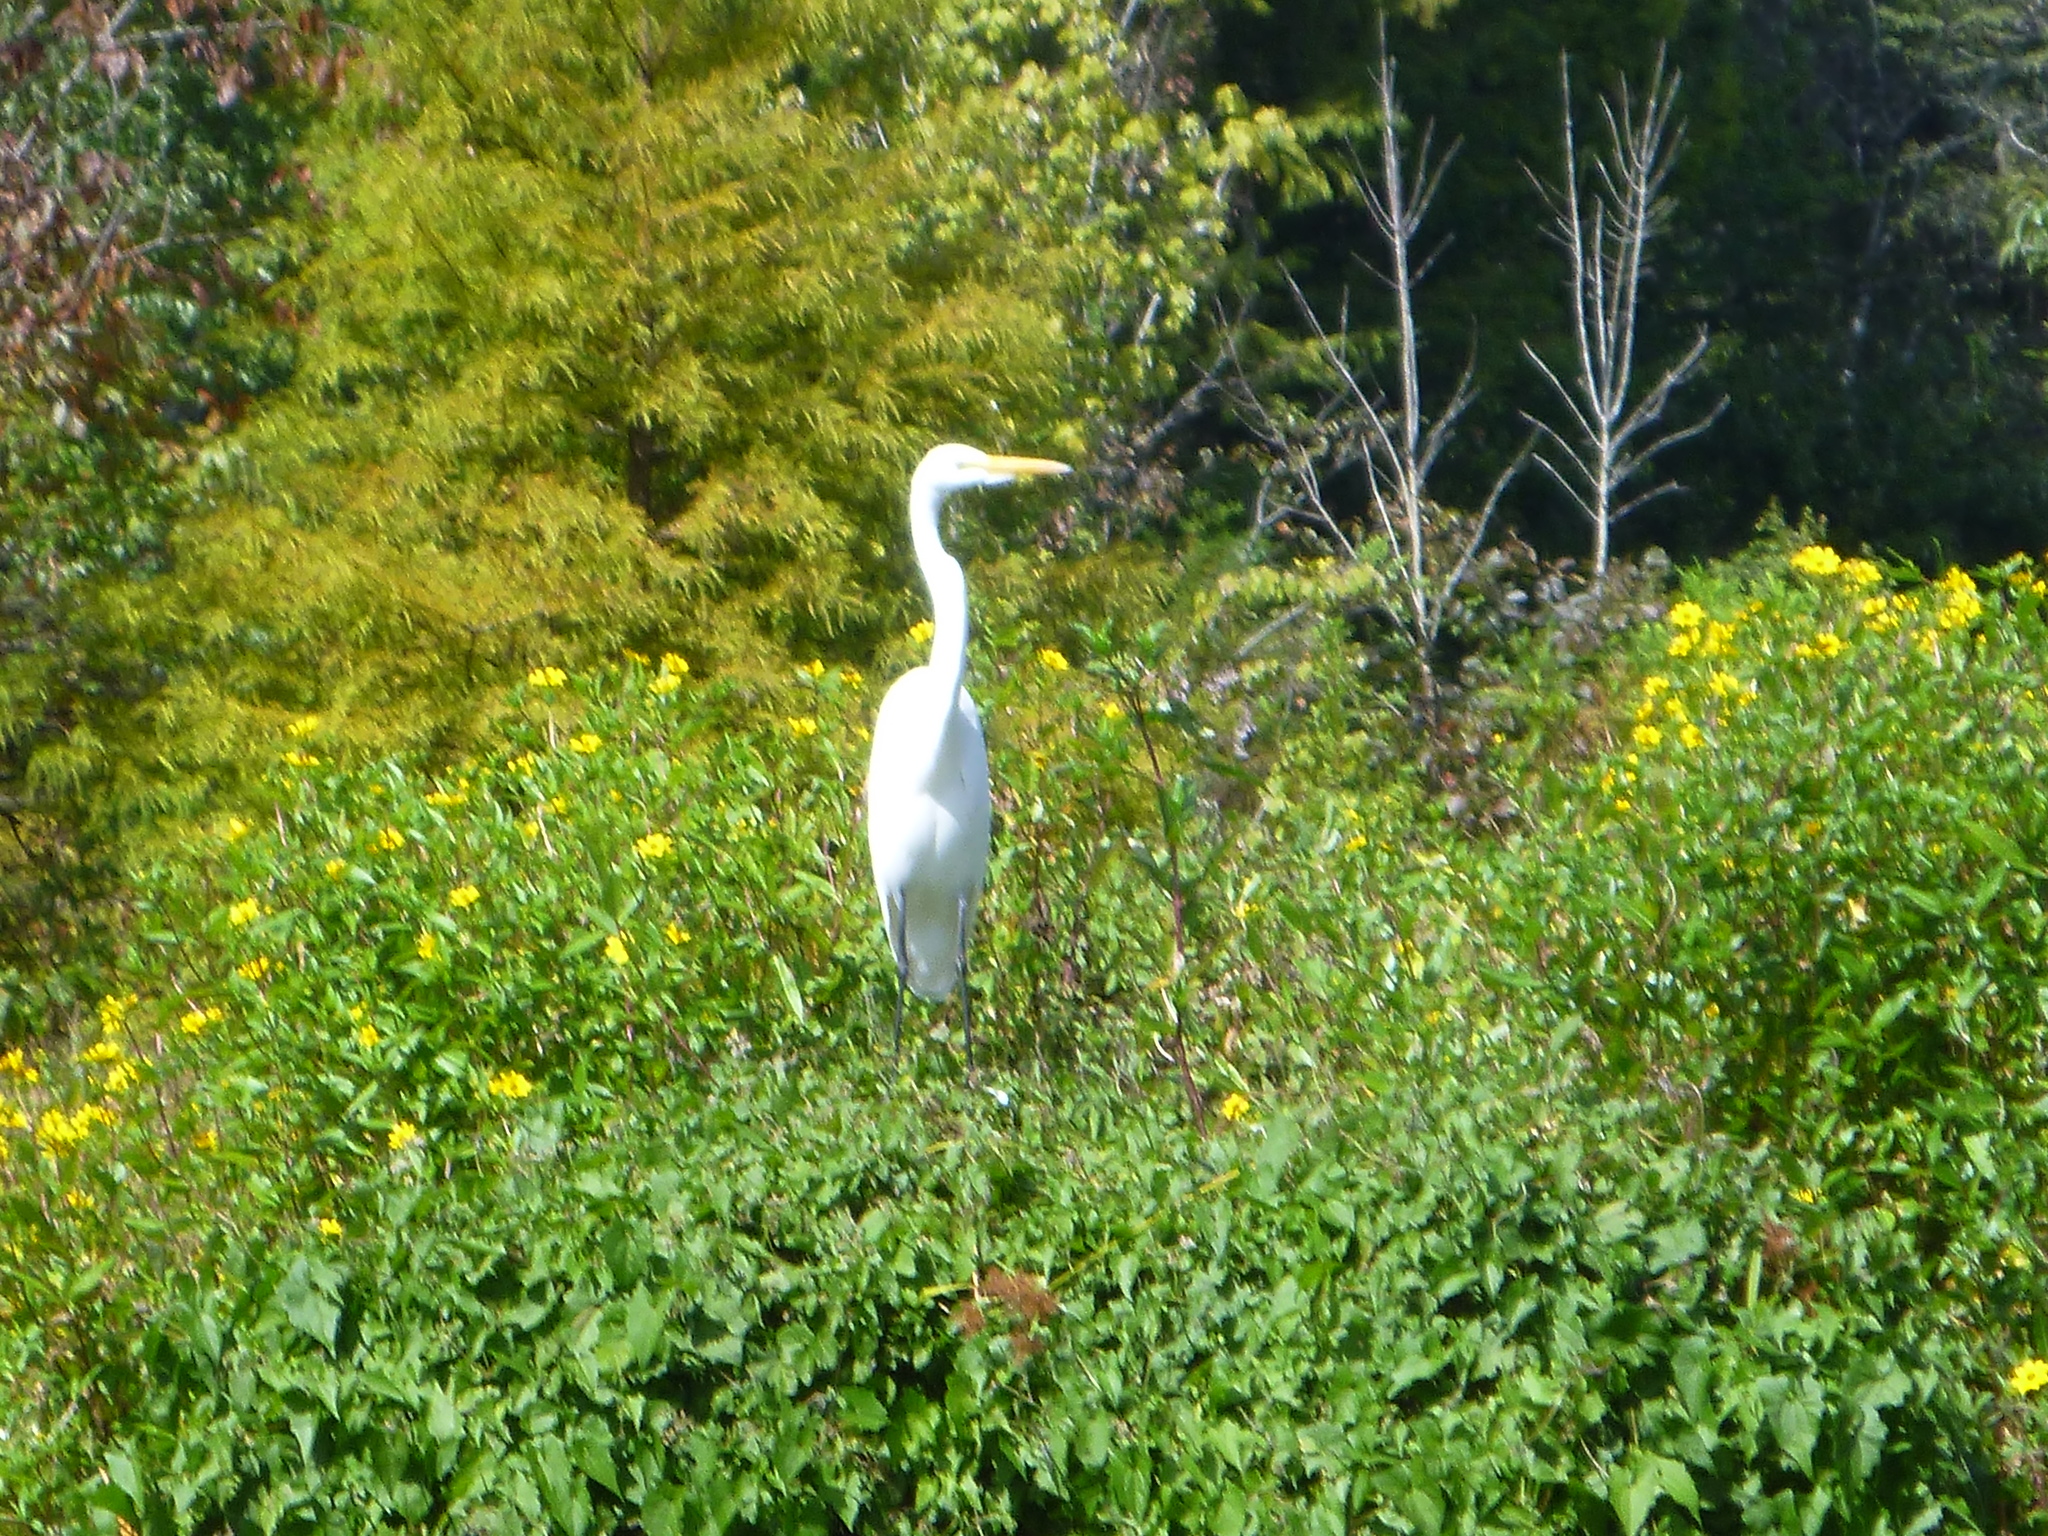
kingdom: Animalia
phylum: Chordata
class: Aves
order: Pelecaniformes
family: Ardeidae
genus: Ardea
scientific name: Ardea alba
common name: Great egret
